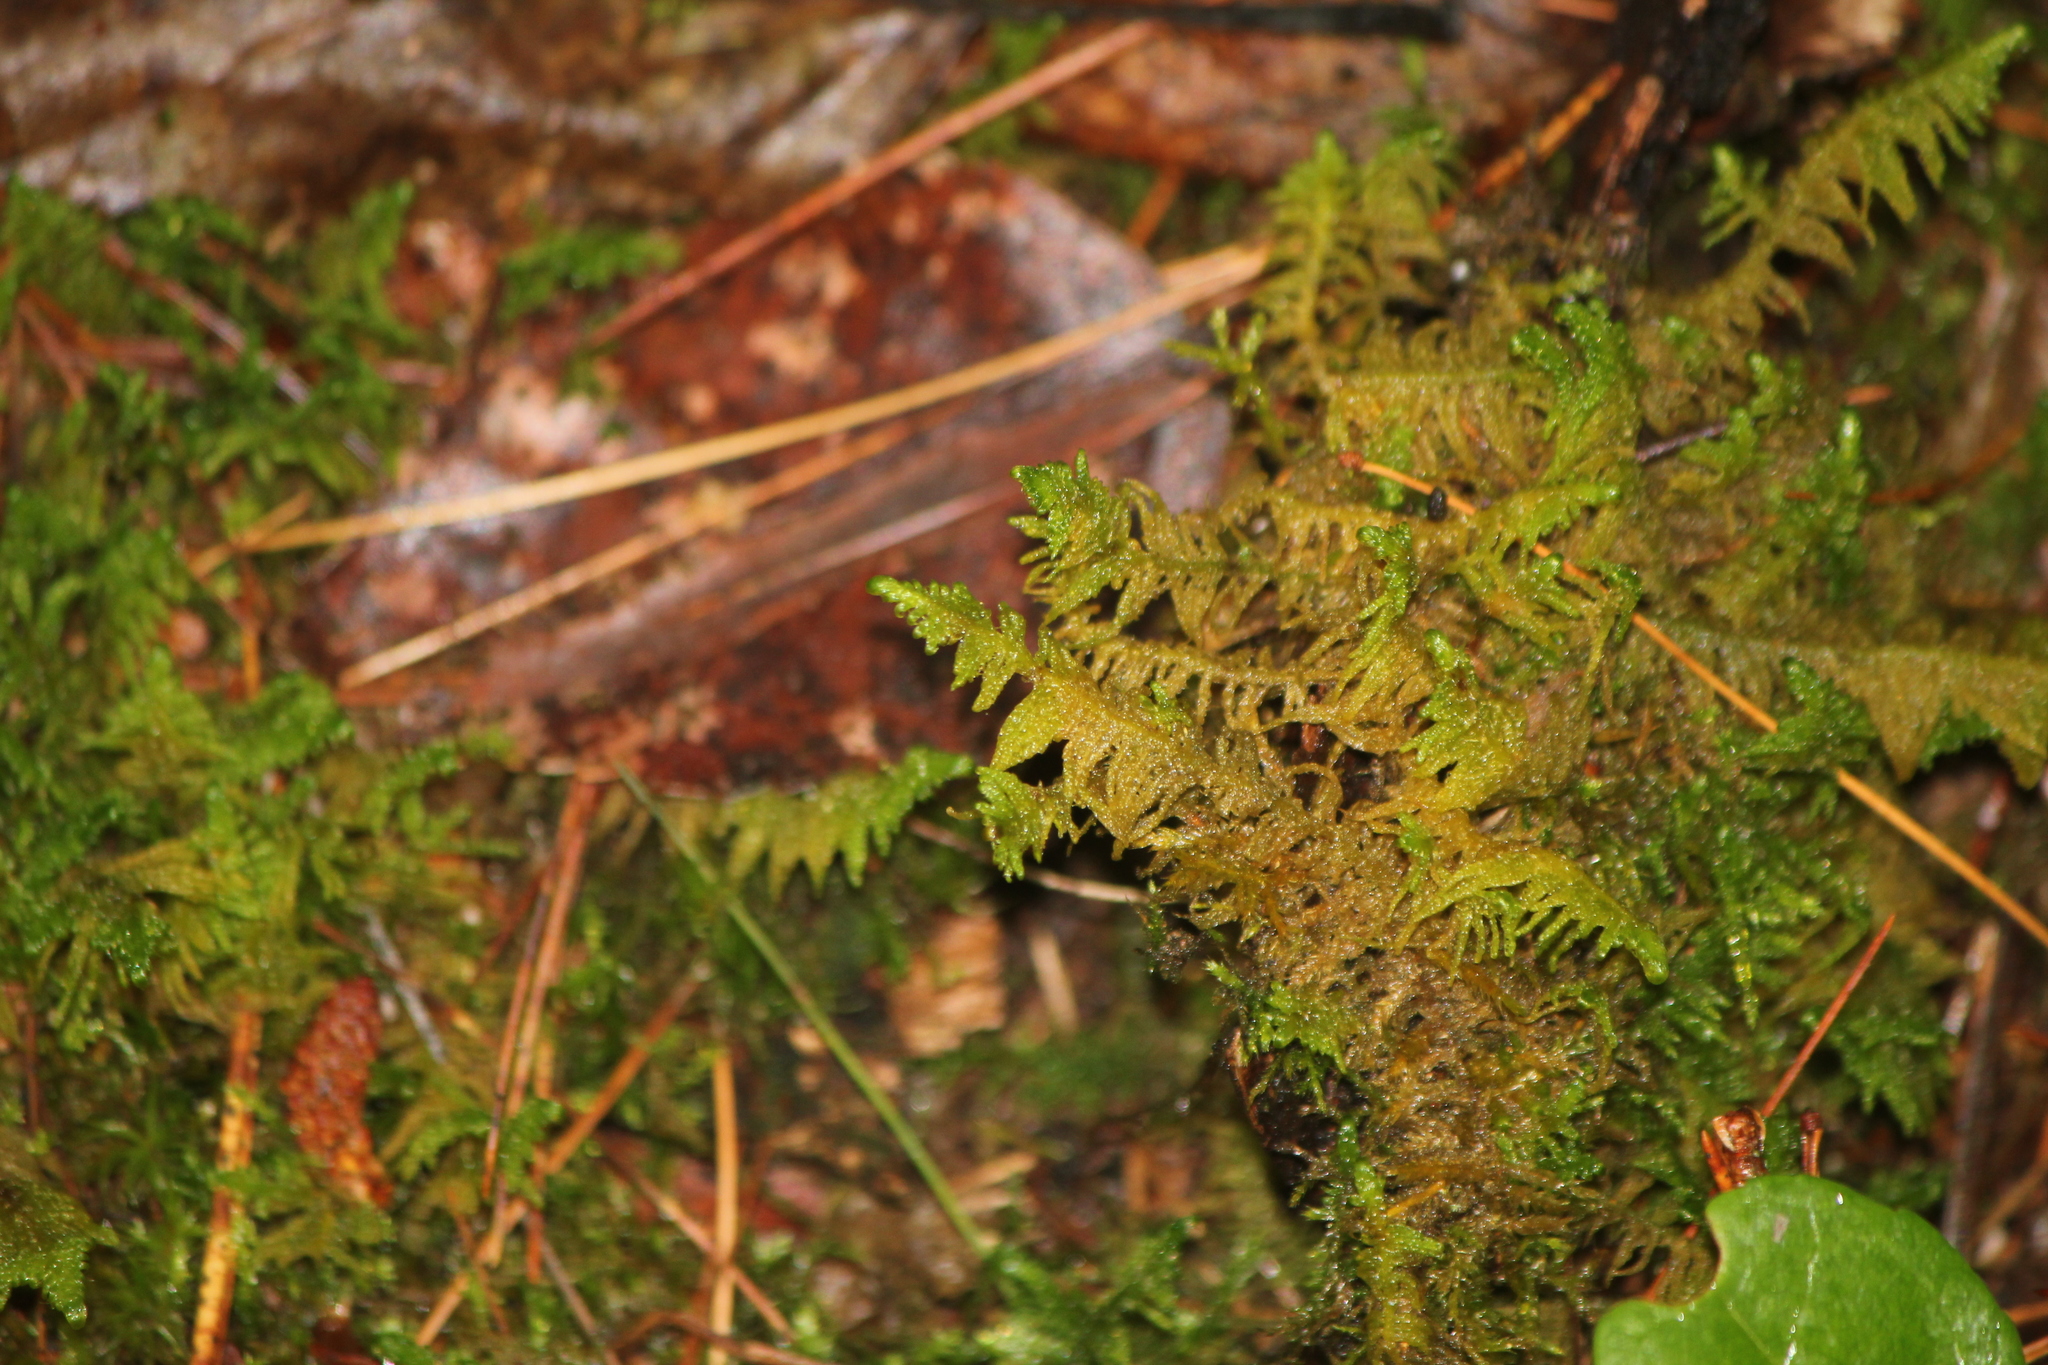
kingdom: Plantae
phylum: Bryophyta
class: Bryopsida
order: Hypnales
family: Pylaisiaceae
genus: Ptilium
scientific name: Ptilium crista-castrensis
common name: Knight's plume moss
